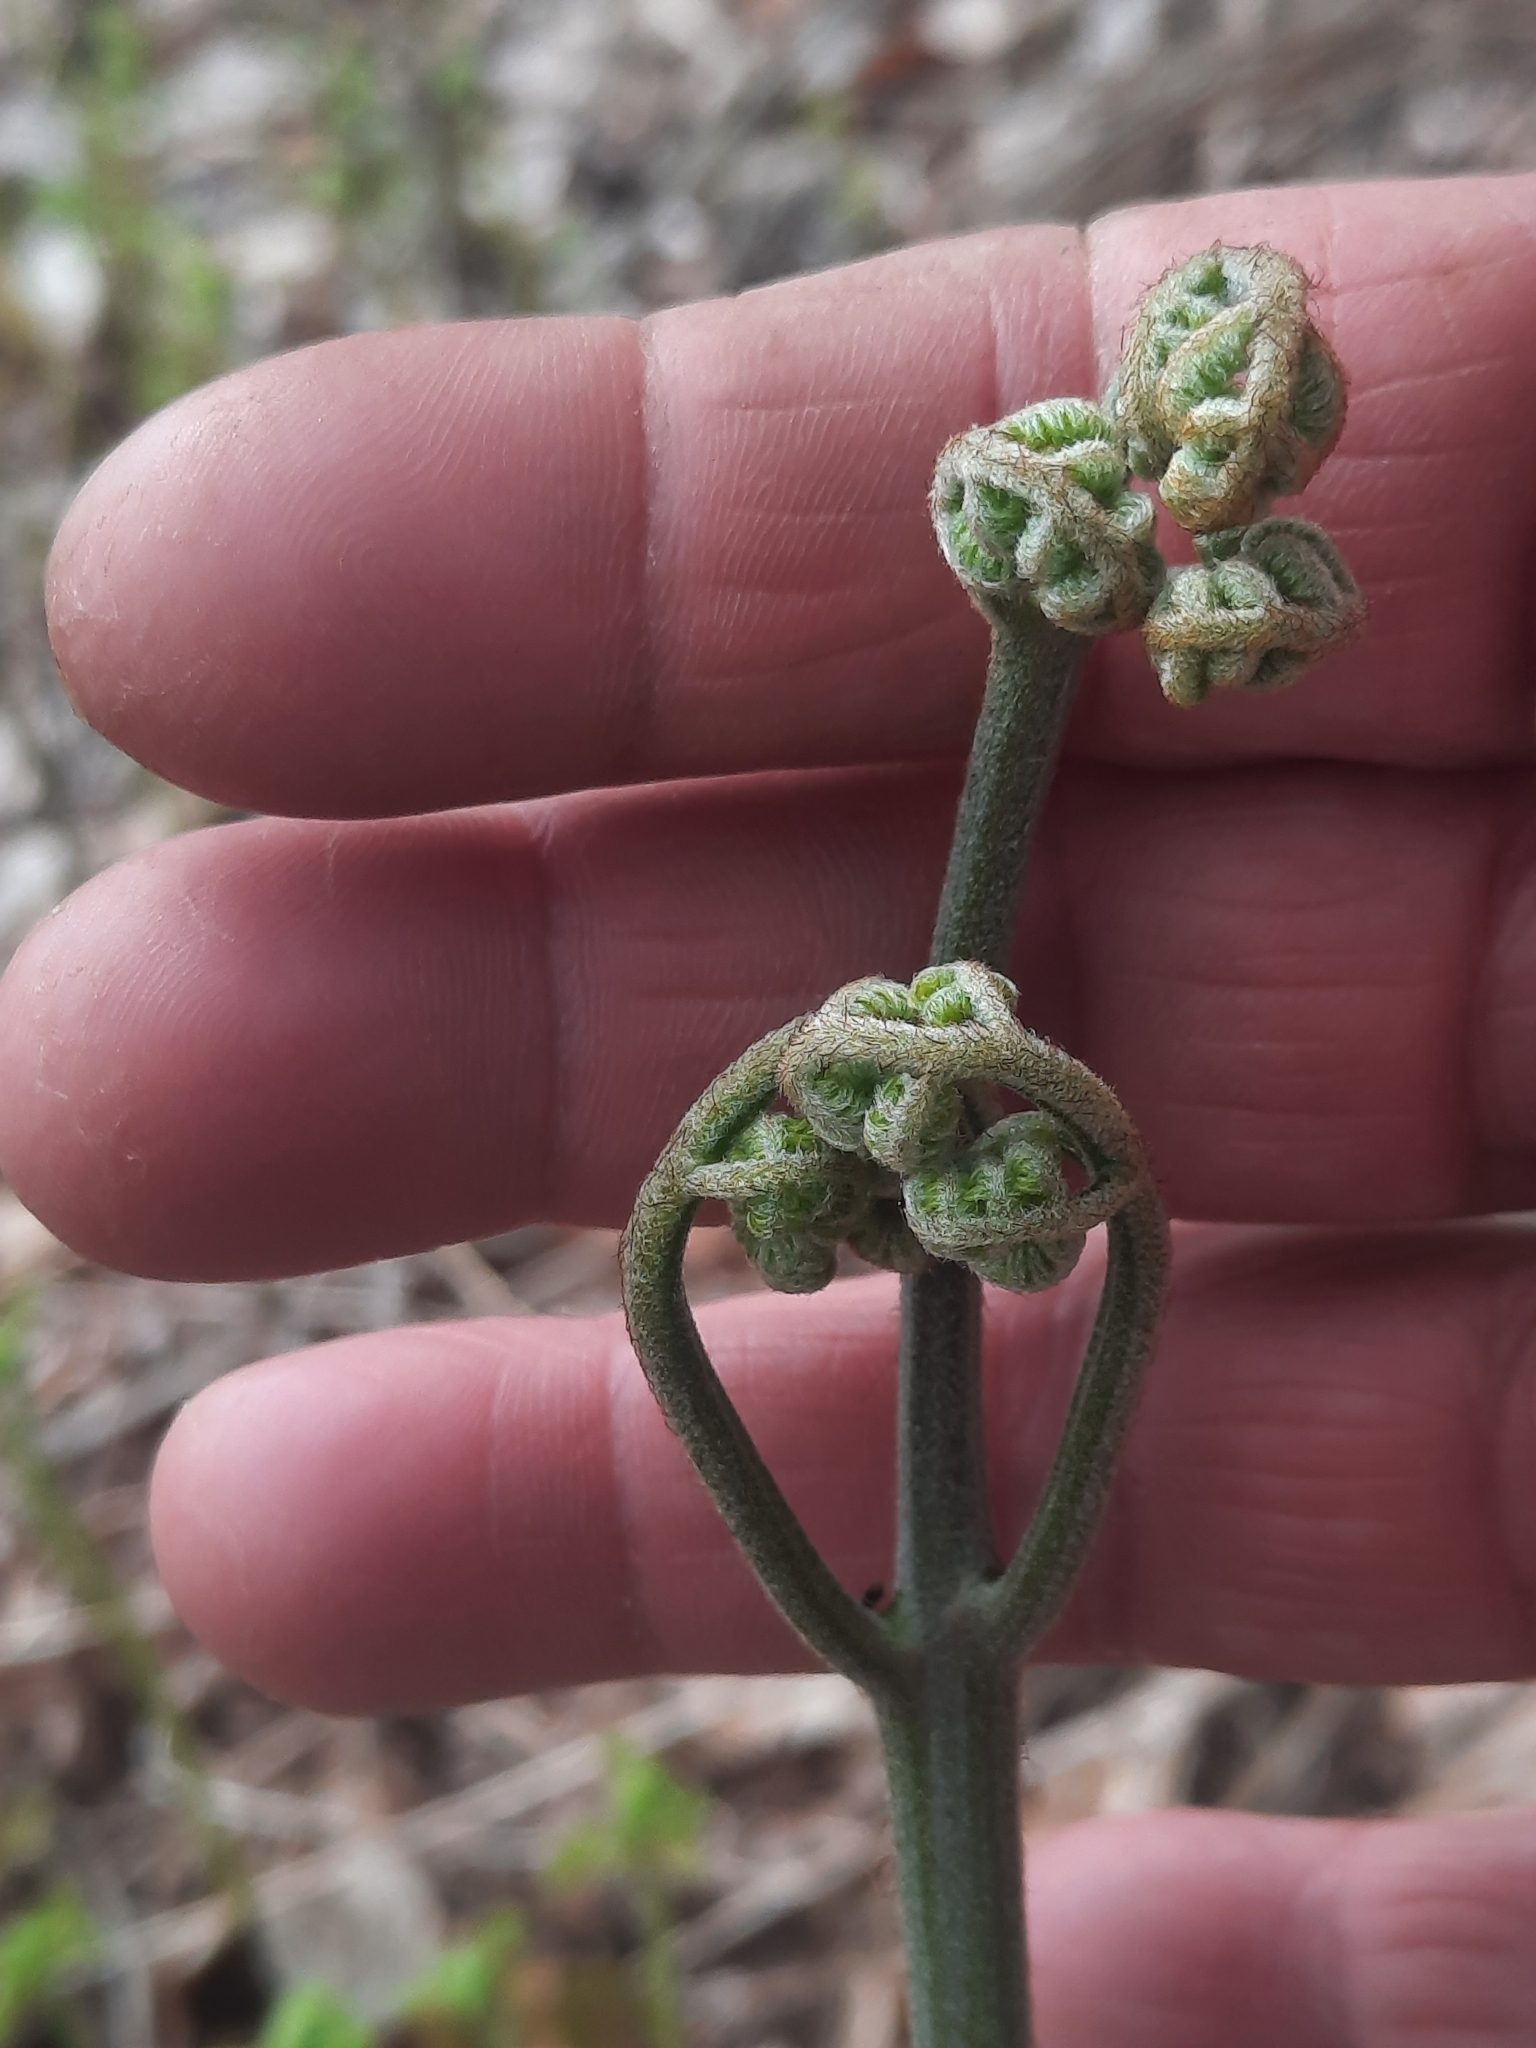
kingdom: Plantae
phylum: Tracheophyta
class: Polypodiopsida
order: Polypodiales
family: Dennstaedtiaceae
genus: Pteridium
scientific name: Pteridium aquilinum
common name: Bracken
